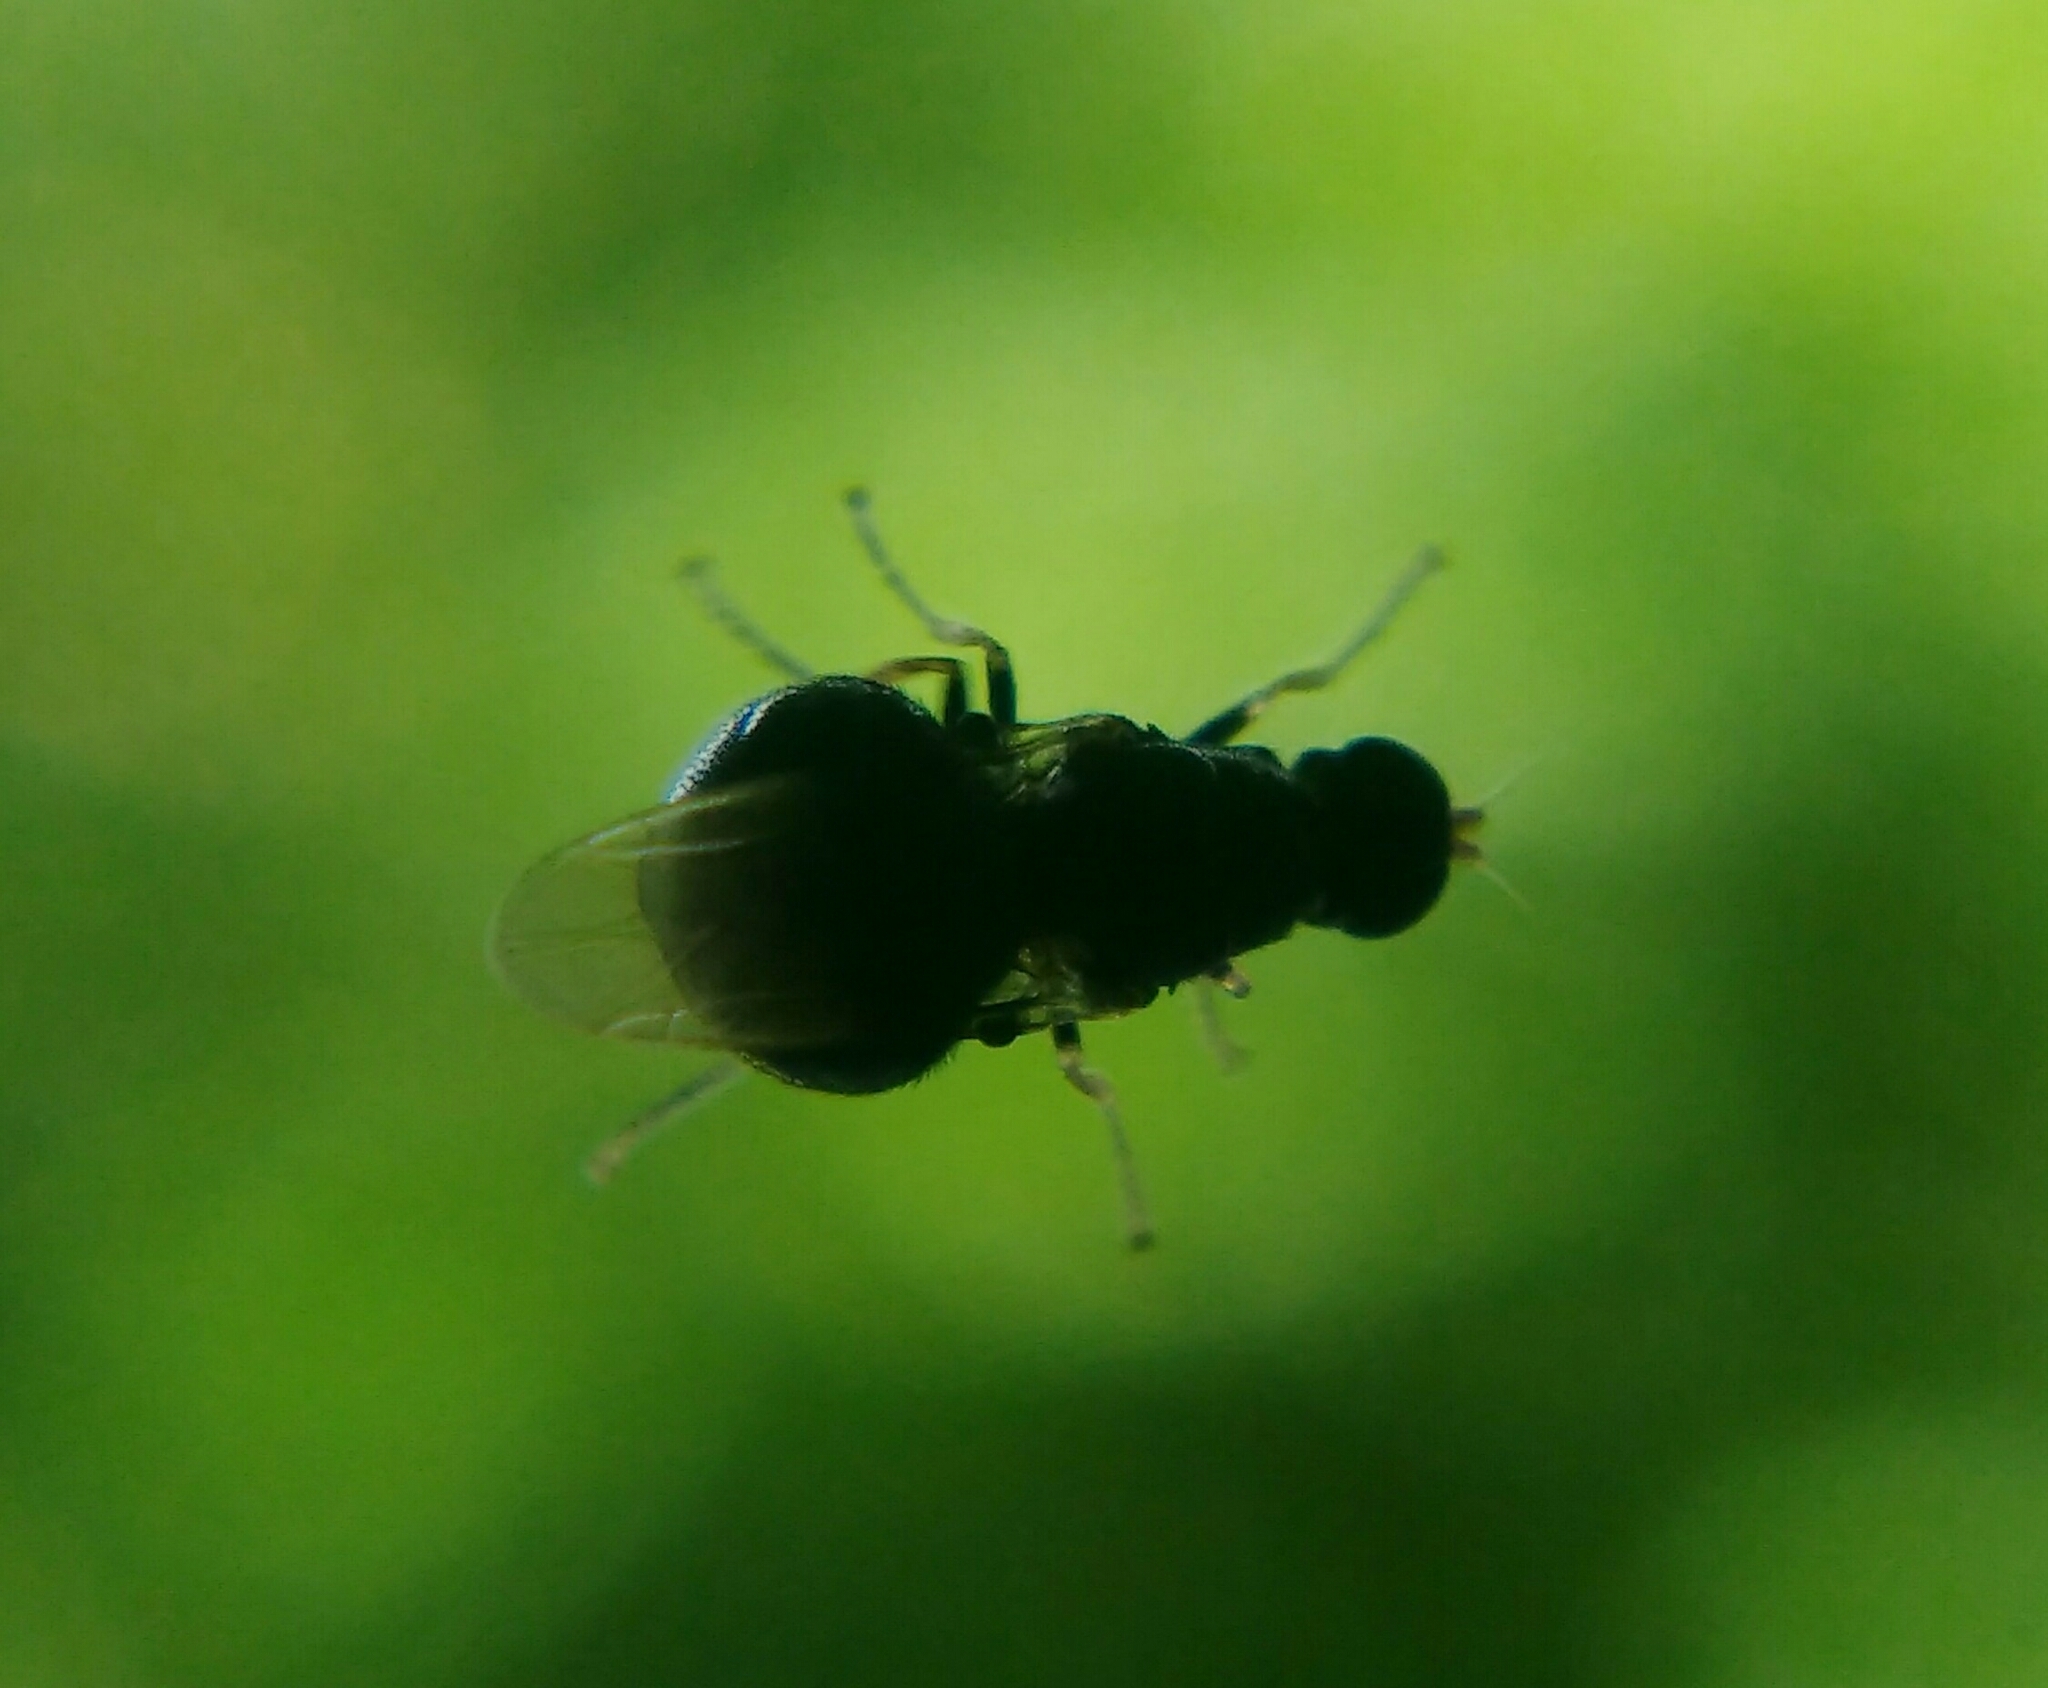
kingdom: Animalia
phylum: Arthropoda
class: Insecta
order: Diptera
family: Stratiomyidae
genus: Pachygaster
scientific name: Pachygaster atra
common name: Dark-winged black
